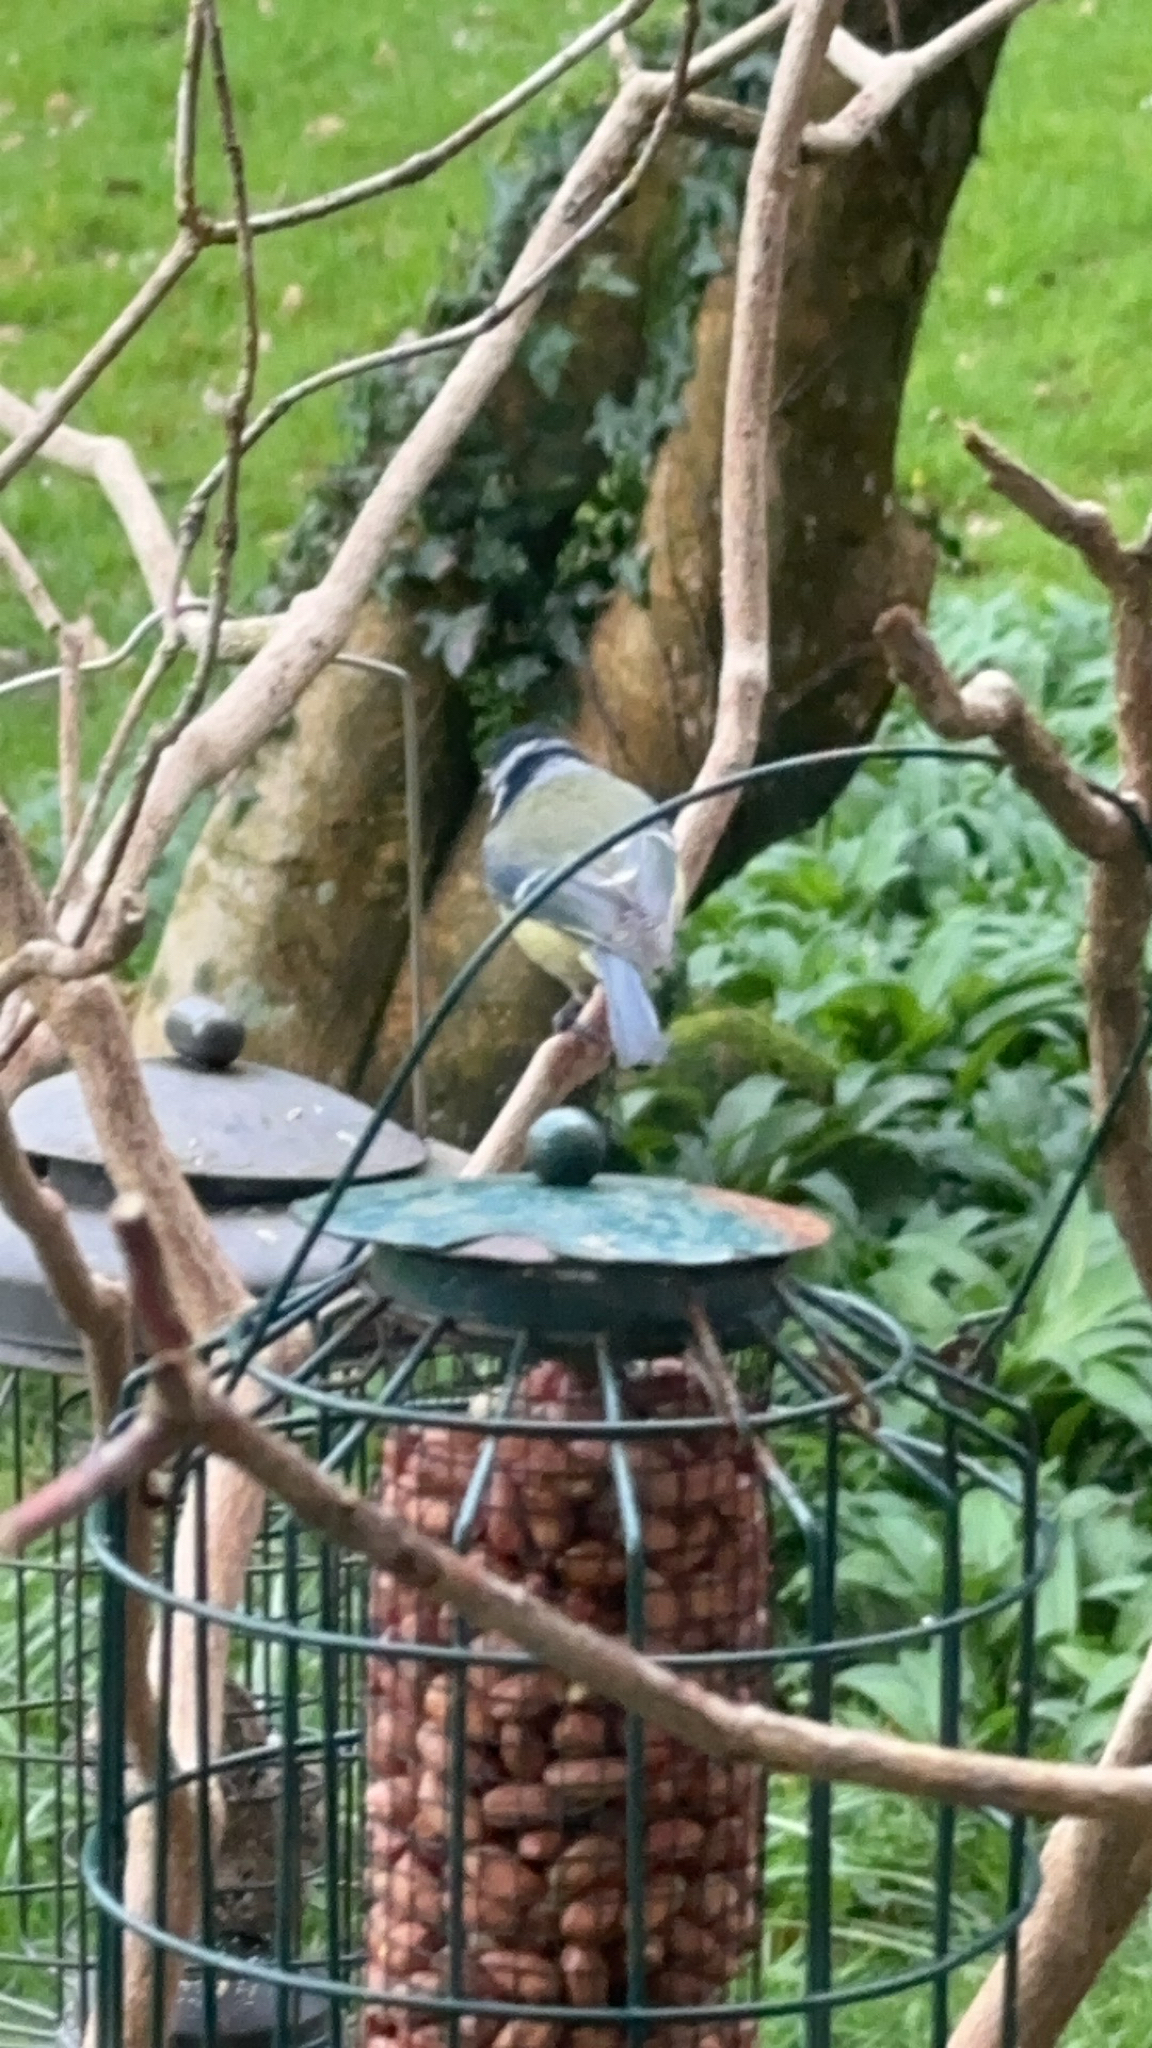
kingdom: Animalia
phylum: Chordata
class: Aves
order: Passeriformes
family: Paridae
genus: Cyanistes
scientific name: Cyanistes caeruleus
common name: Eurasian blue tit
